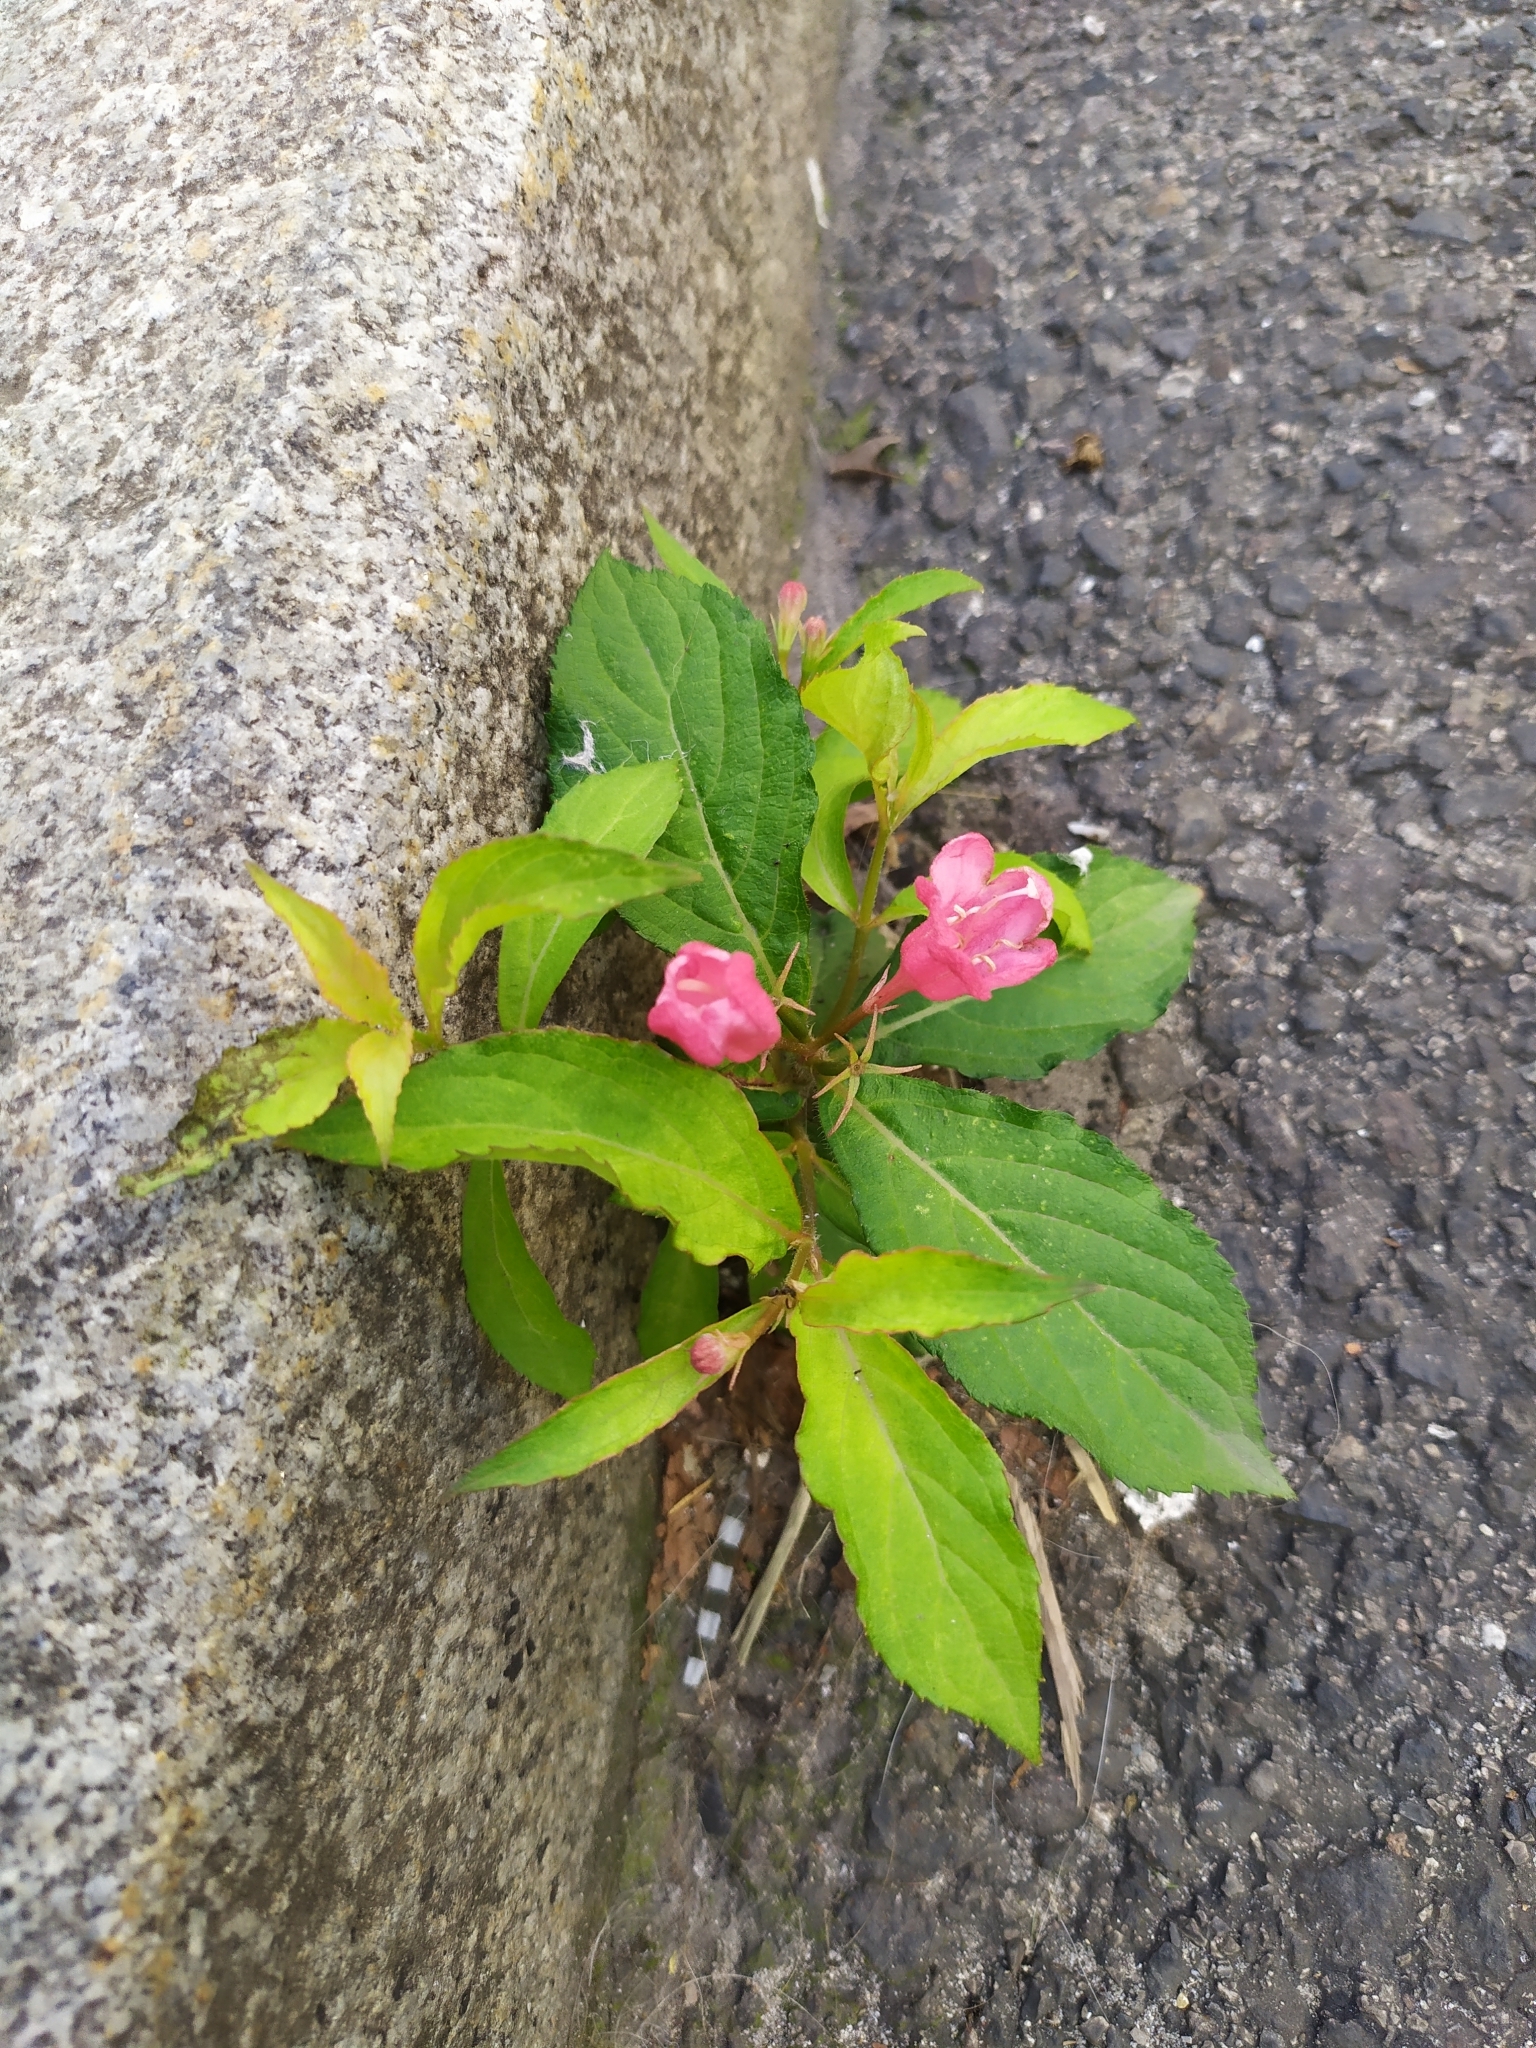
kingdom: Plantae
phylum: Tracheophyta
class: Magnoliopsida
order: Dipsacales
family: Caprifoliaceae
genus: Weigela
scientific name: Weigela florida
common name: Weigelia
